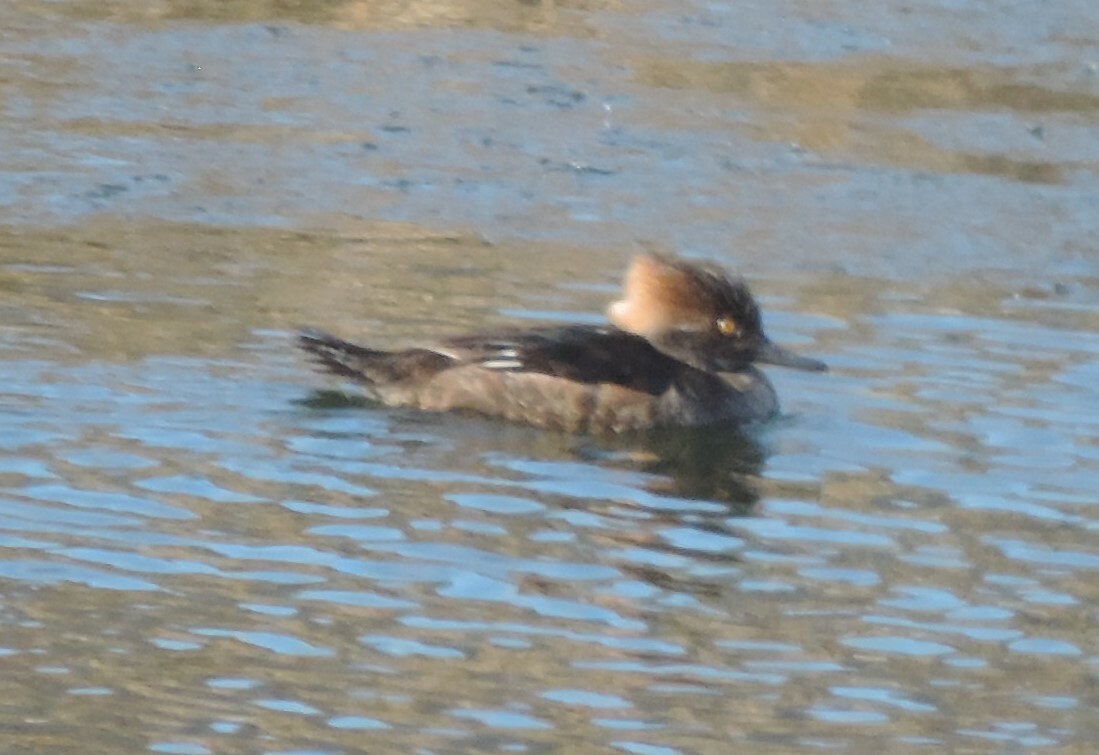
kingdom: Animalia
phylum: Chordata
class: Aves
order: Anseriformes
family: Anatidae
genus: Lophodytes
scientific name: Lophodytes cucullatus
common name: Hooded merganser
